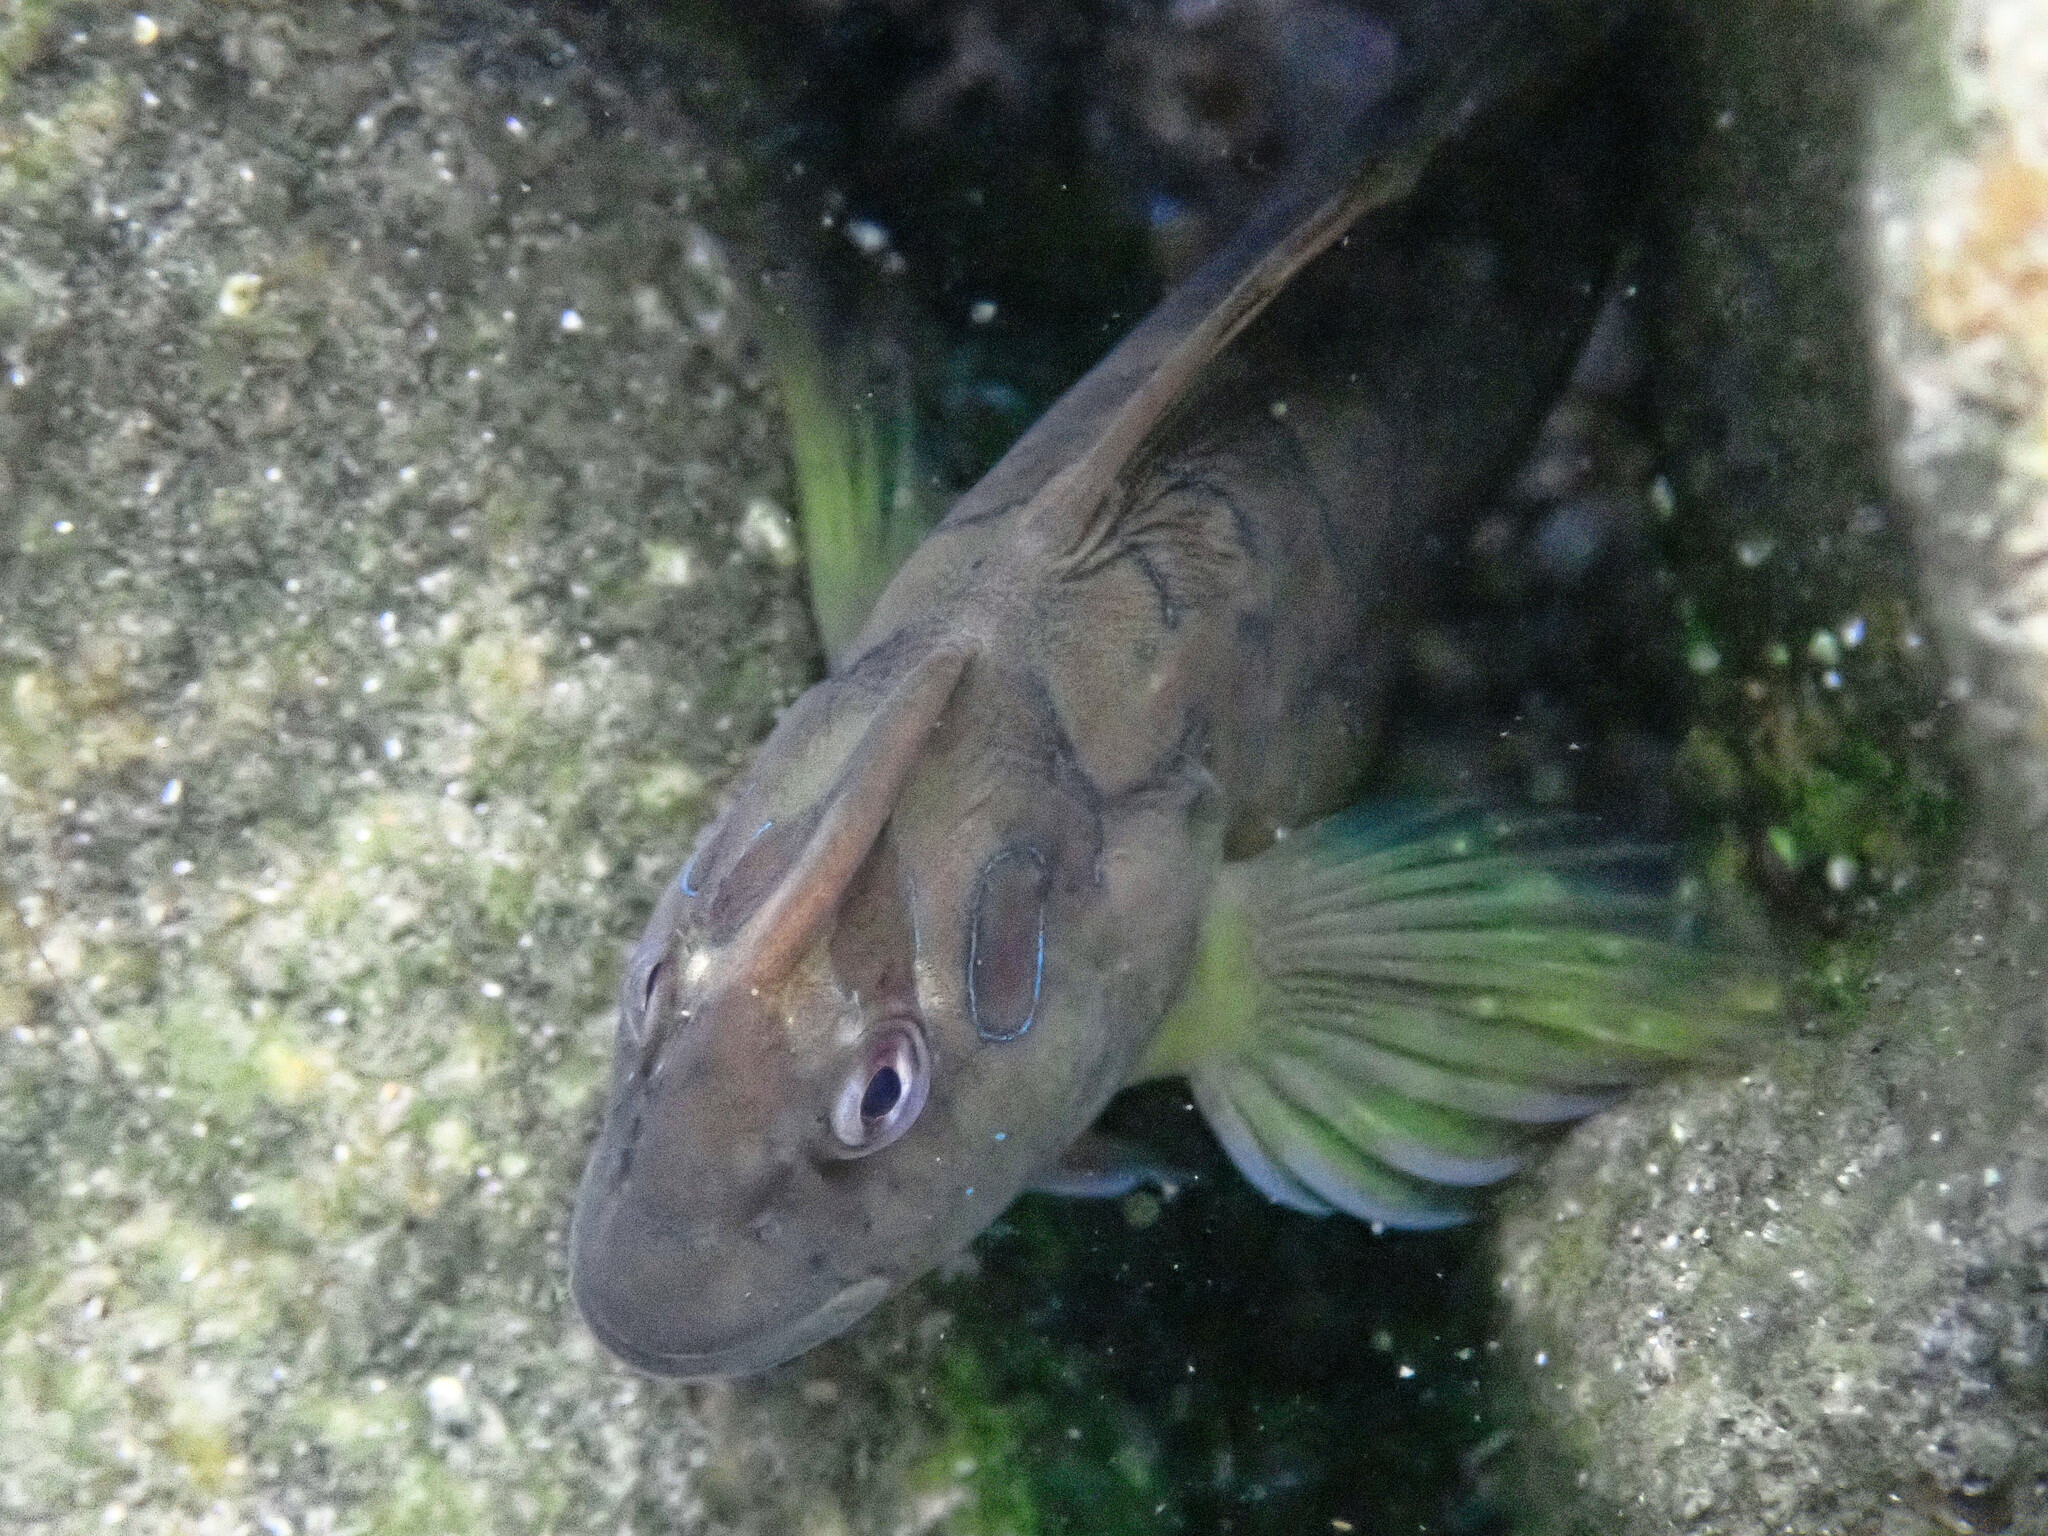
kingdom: Animalia
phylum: Chordata
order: Perciformes
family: Blenniidae
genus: Salaria
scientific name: Salaria pavo
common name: Peacock blenny
